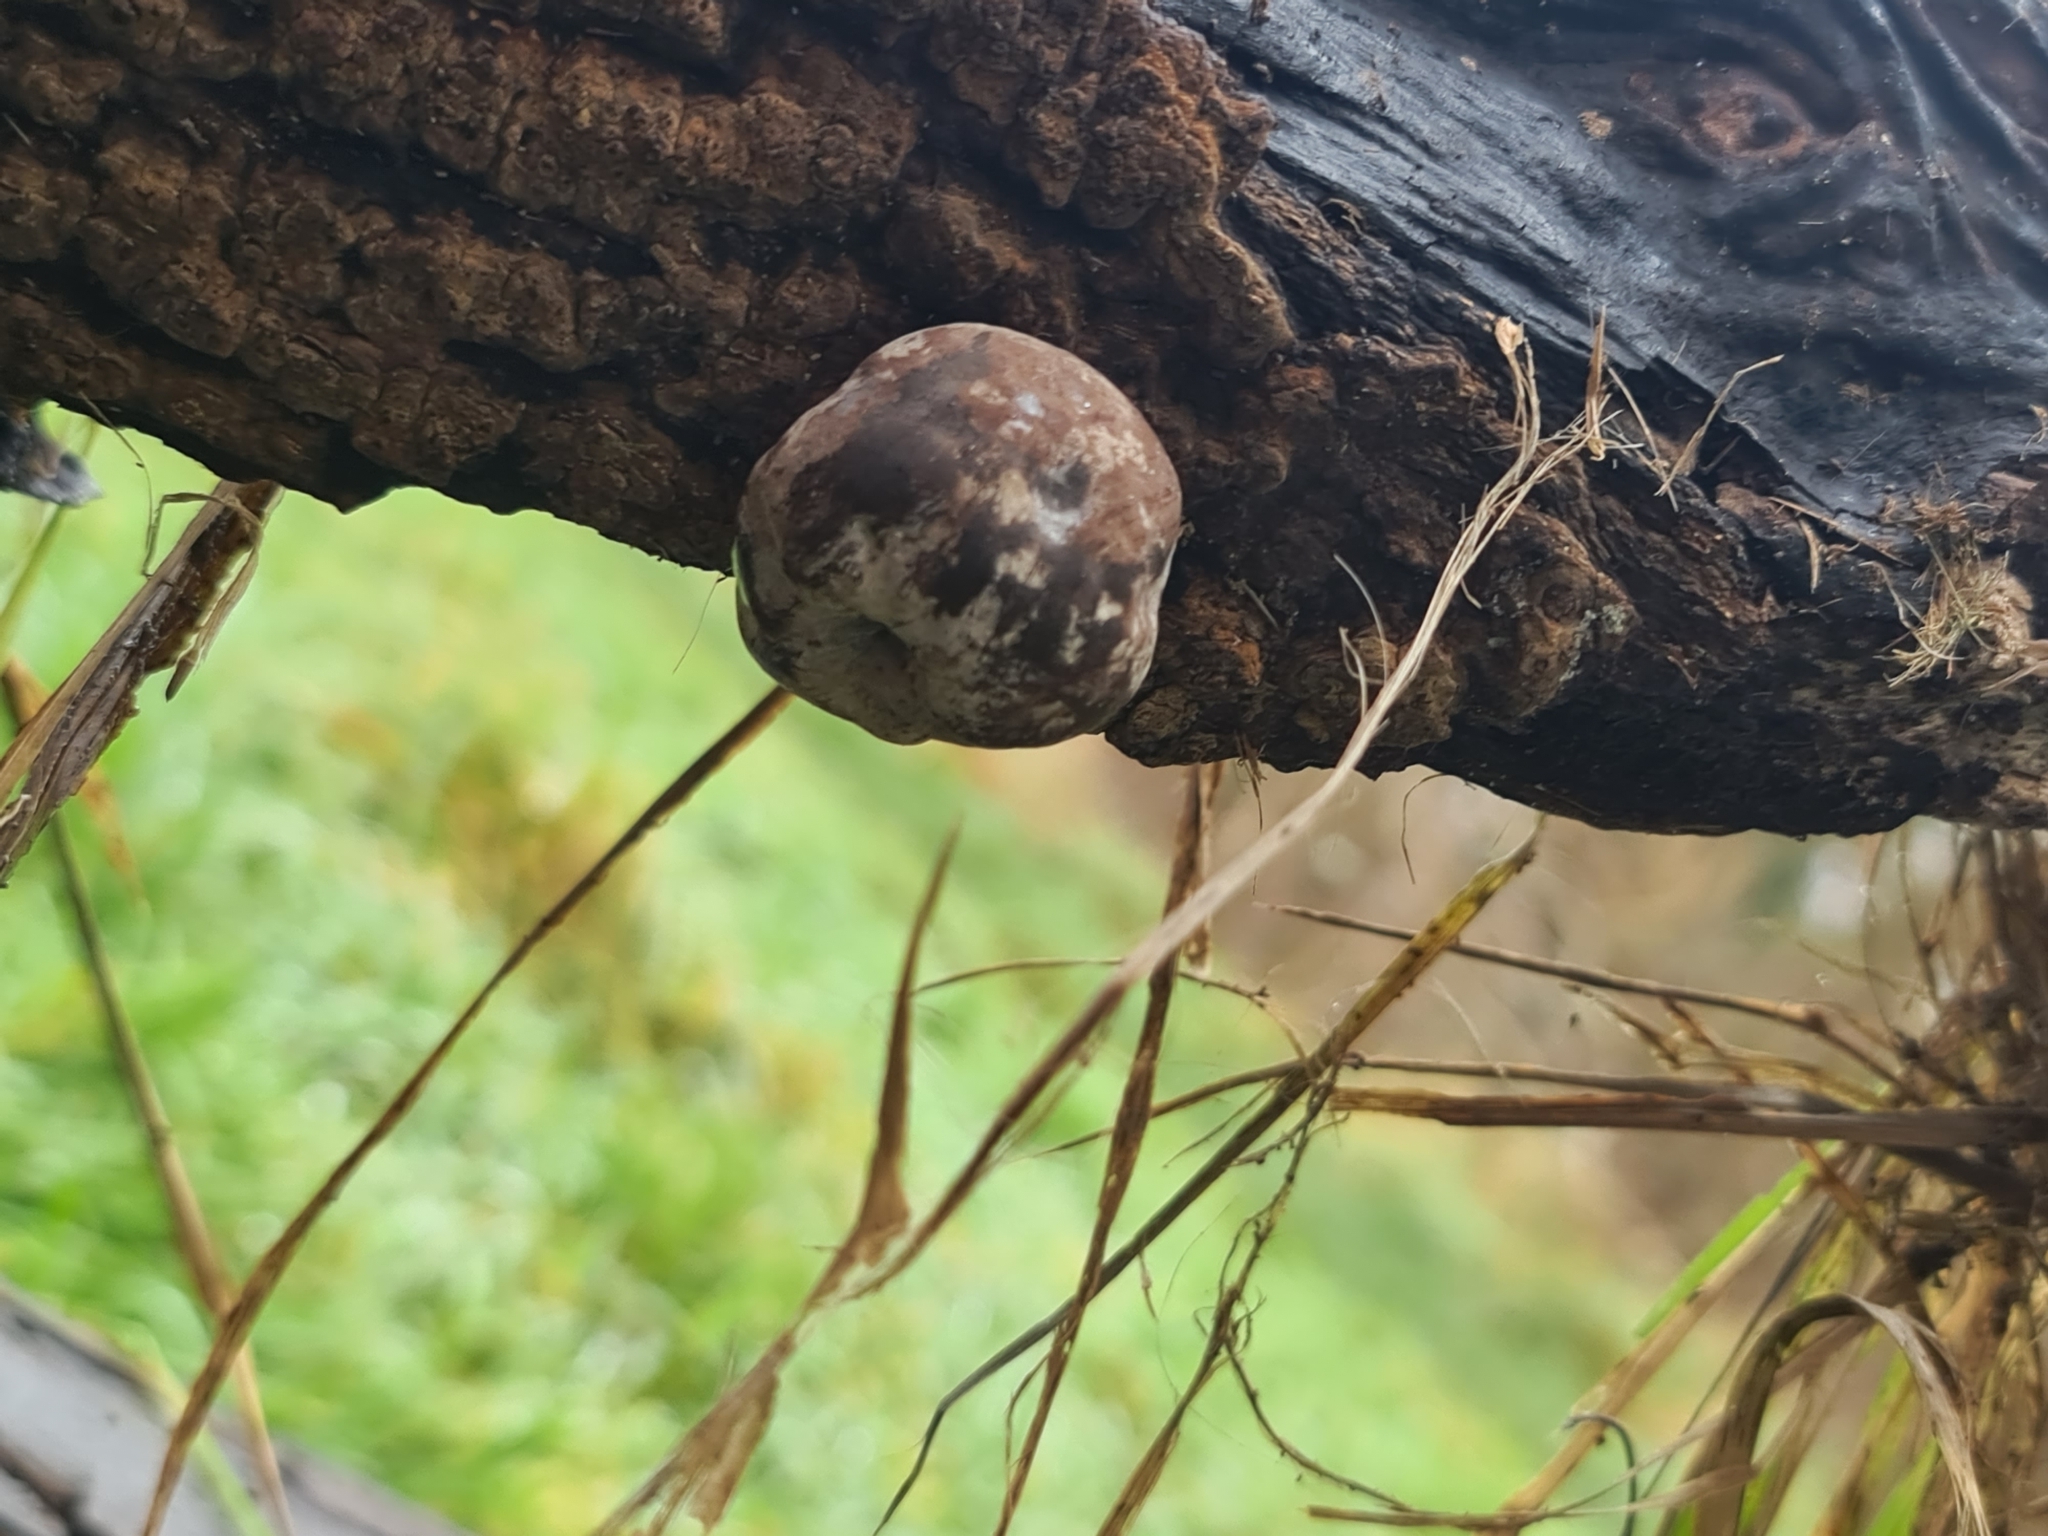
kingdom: Fungi
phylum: Ascomycota
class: Sordariomycetes
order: Xylariales
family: Hypoxylaceae
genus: Daldinia
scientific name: Daldinia concentrica
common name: Cramp balls
